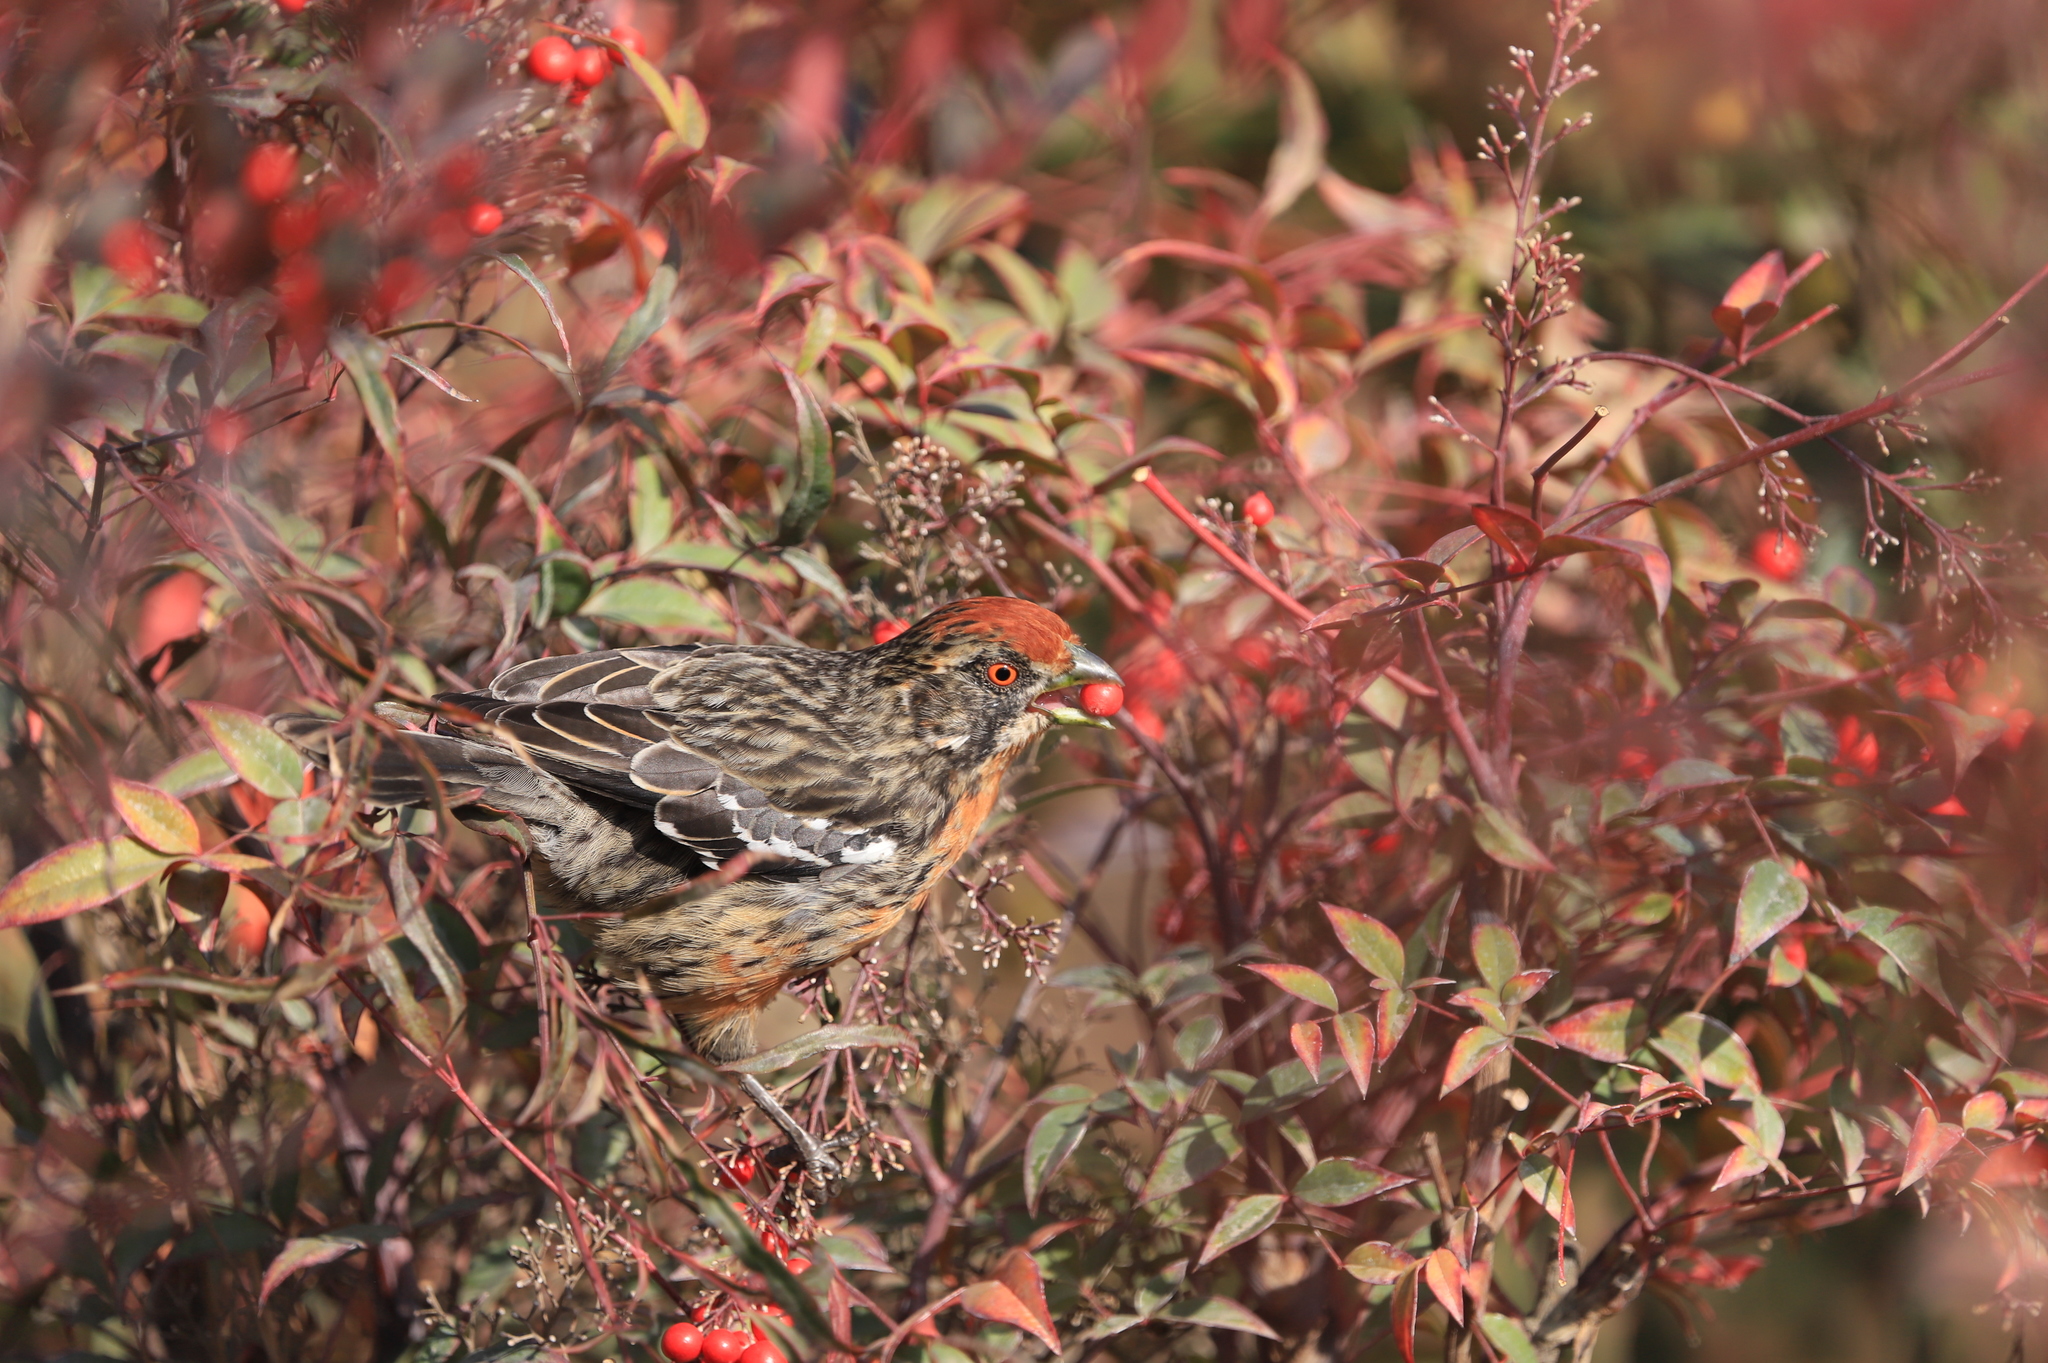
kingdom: Animalia
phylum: Chordata
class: Aves
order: Passeriformes
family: Cotingidae
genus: Phytotoma
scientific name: Phytotoma rara
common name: Rufous-tailed plantcutter
